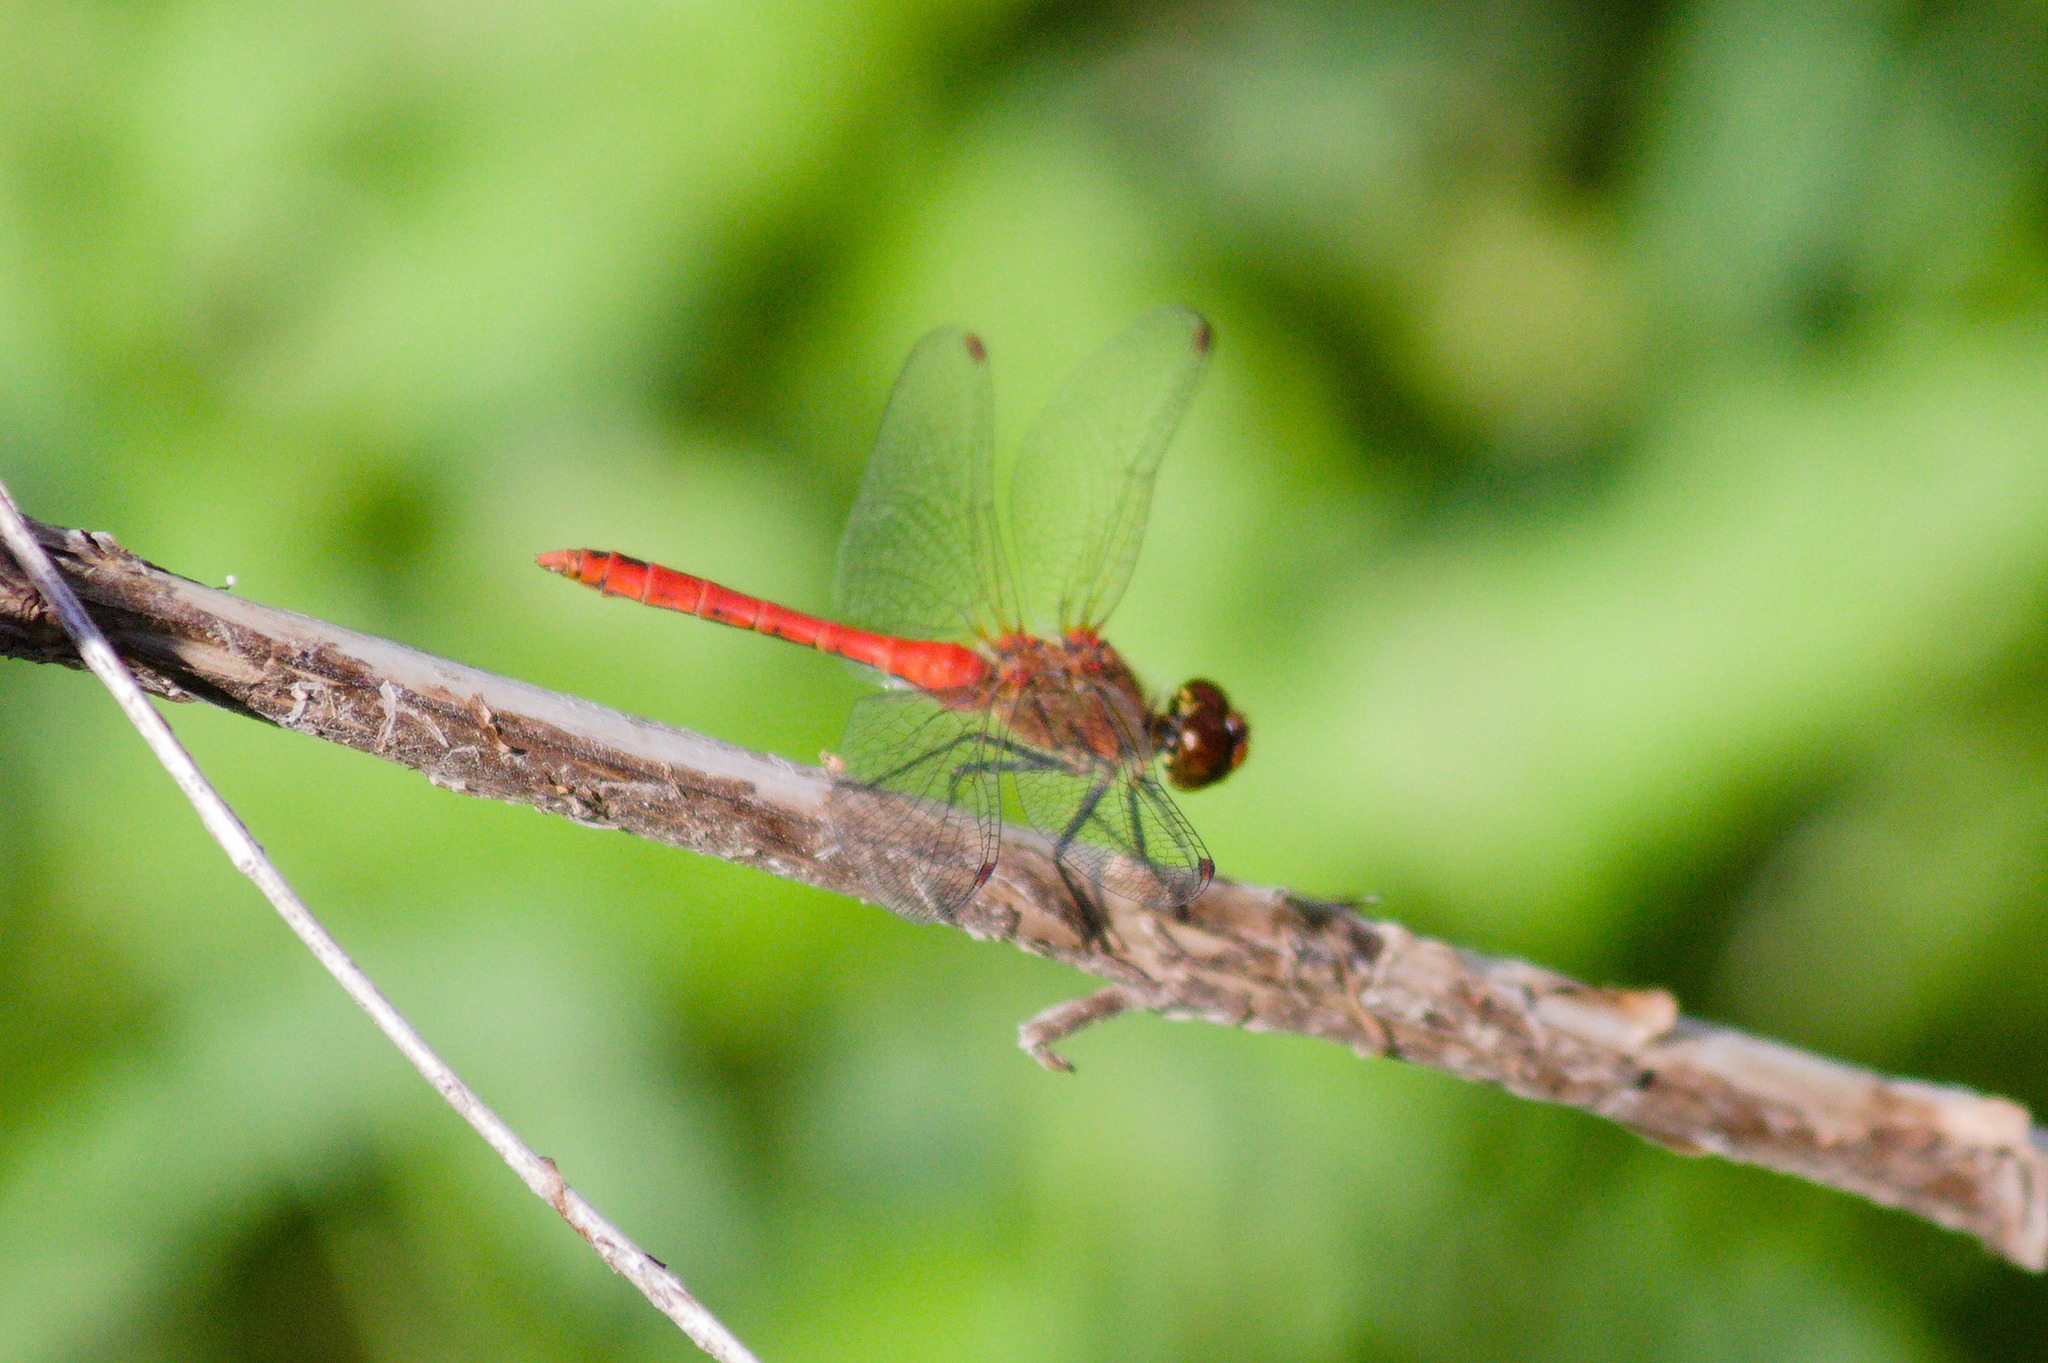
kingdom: Animalia
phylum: Arthropoda
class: Insecta
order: Odonata
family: Libellulidae
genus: Sympetrum
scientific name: Sympetrum sanguineum
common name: Ruddy darter
